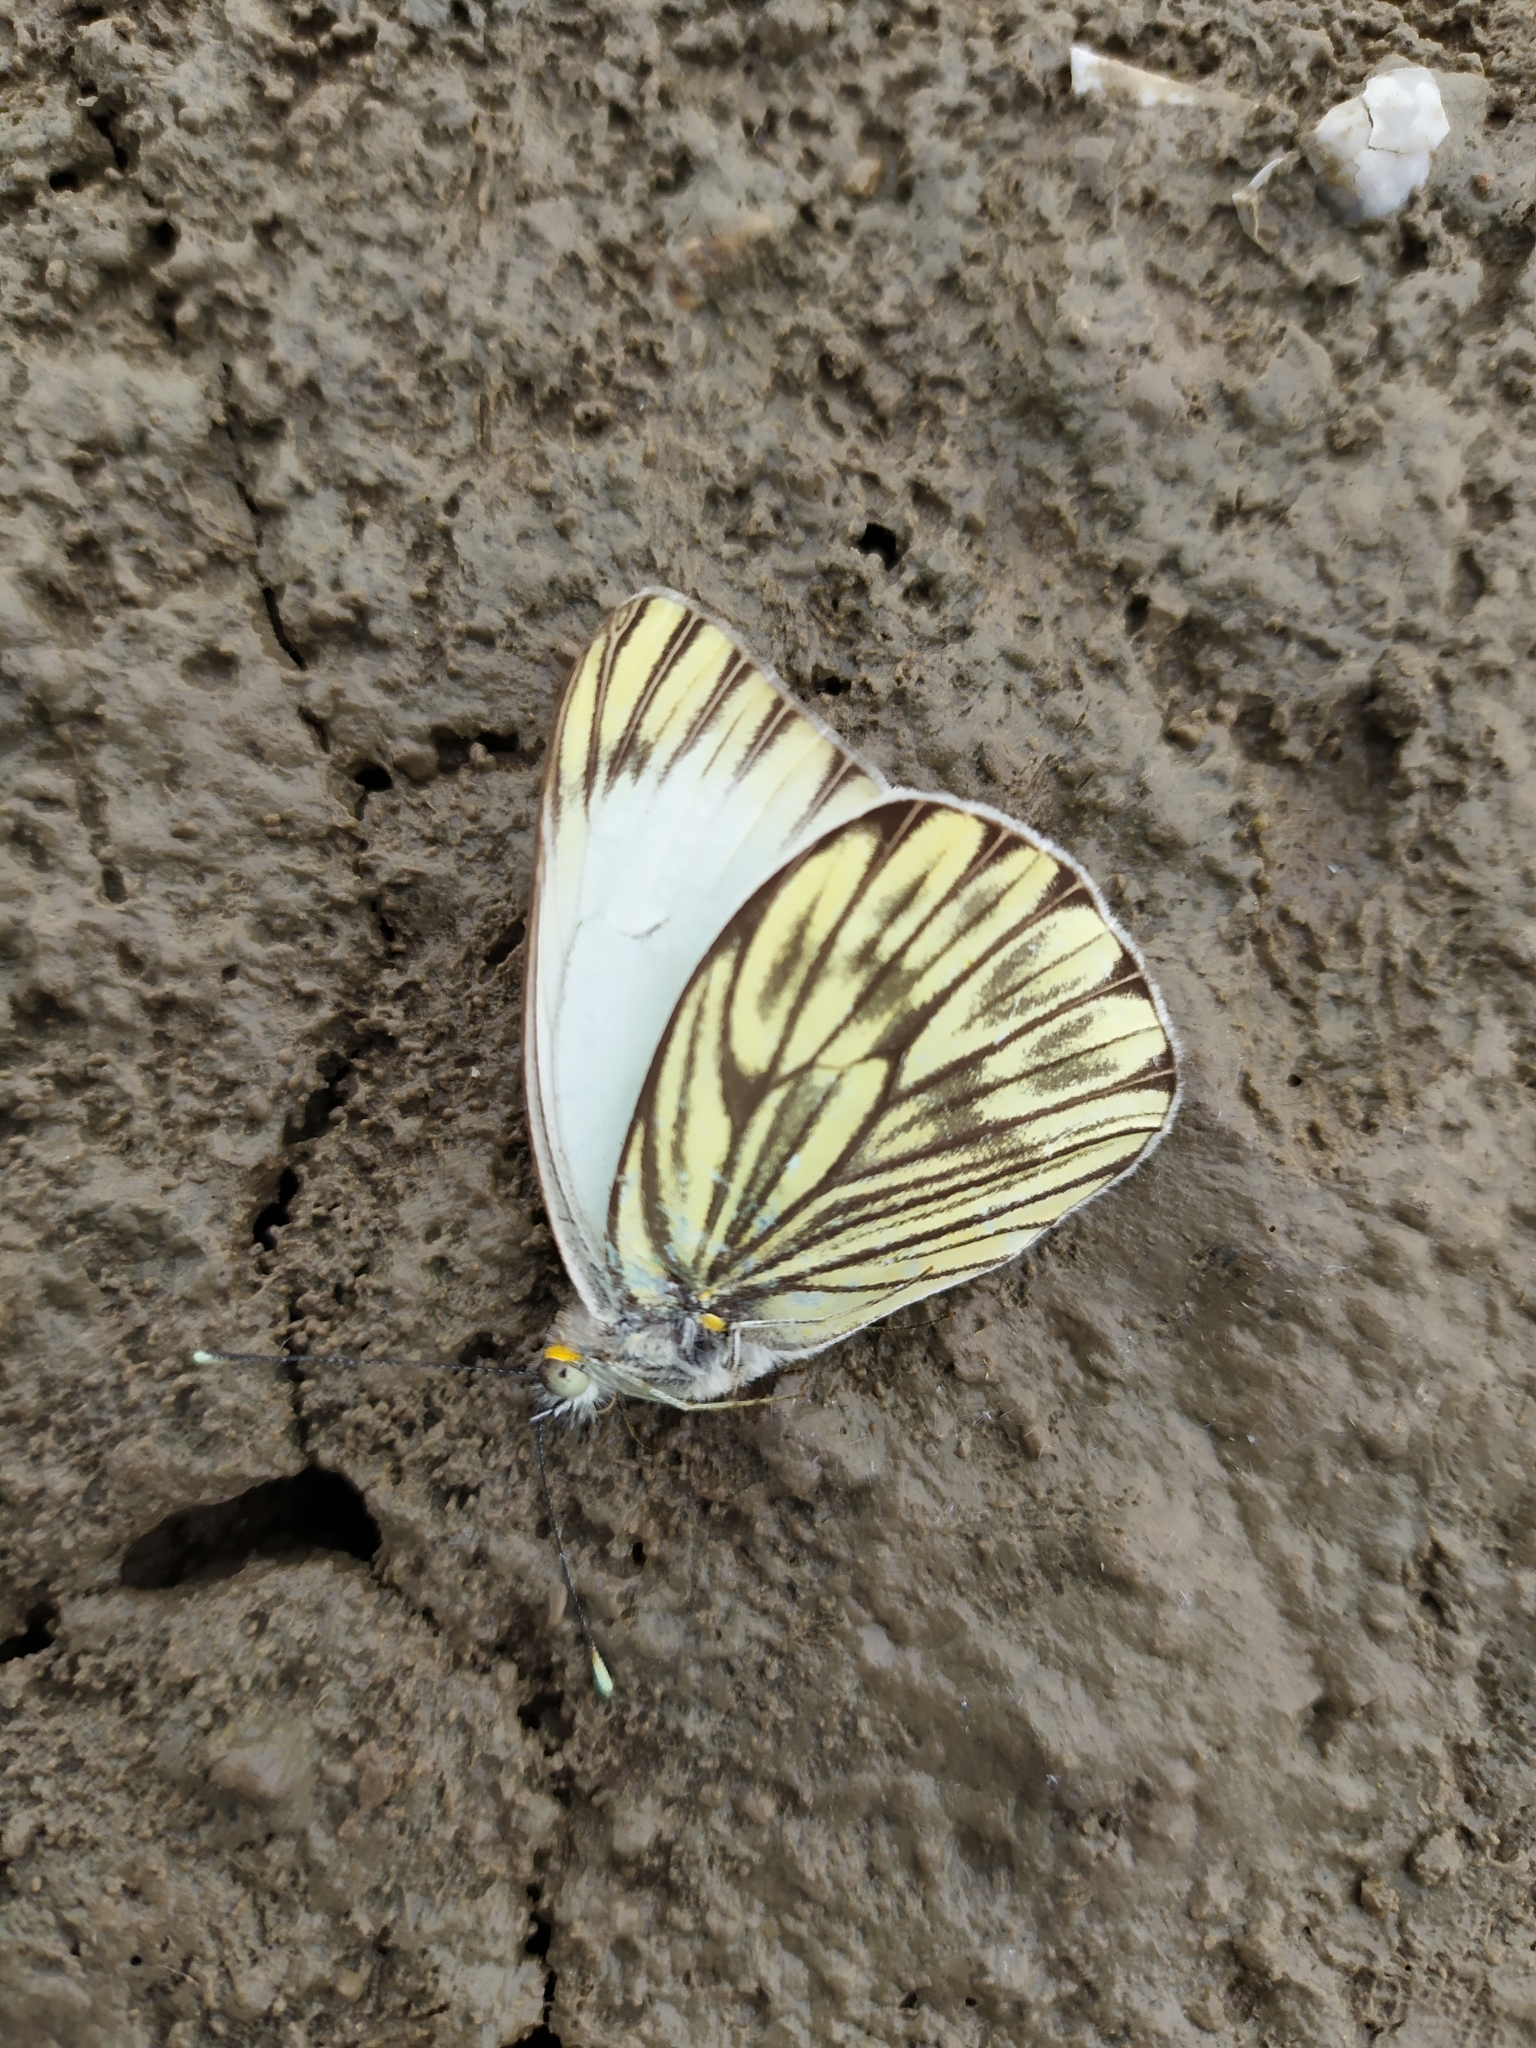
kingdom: Animalia
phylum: Arthropoda
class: Insecta
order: Lepidoptera
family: Pieridae
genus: Ascia
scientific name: Ascia monuste
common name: Great southern white
